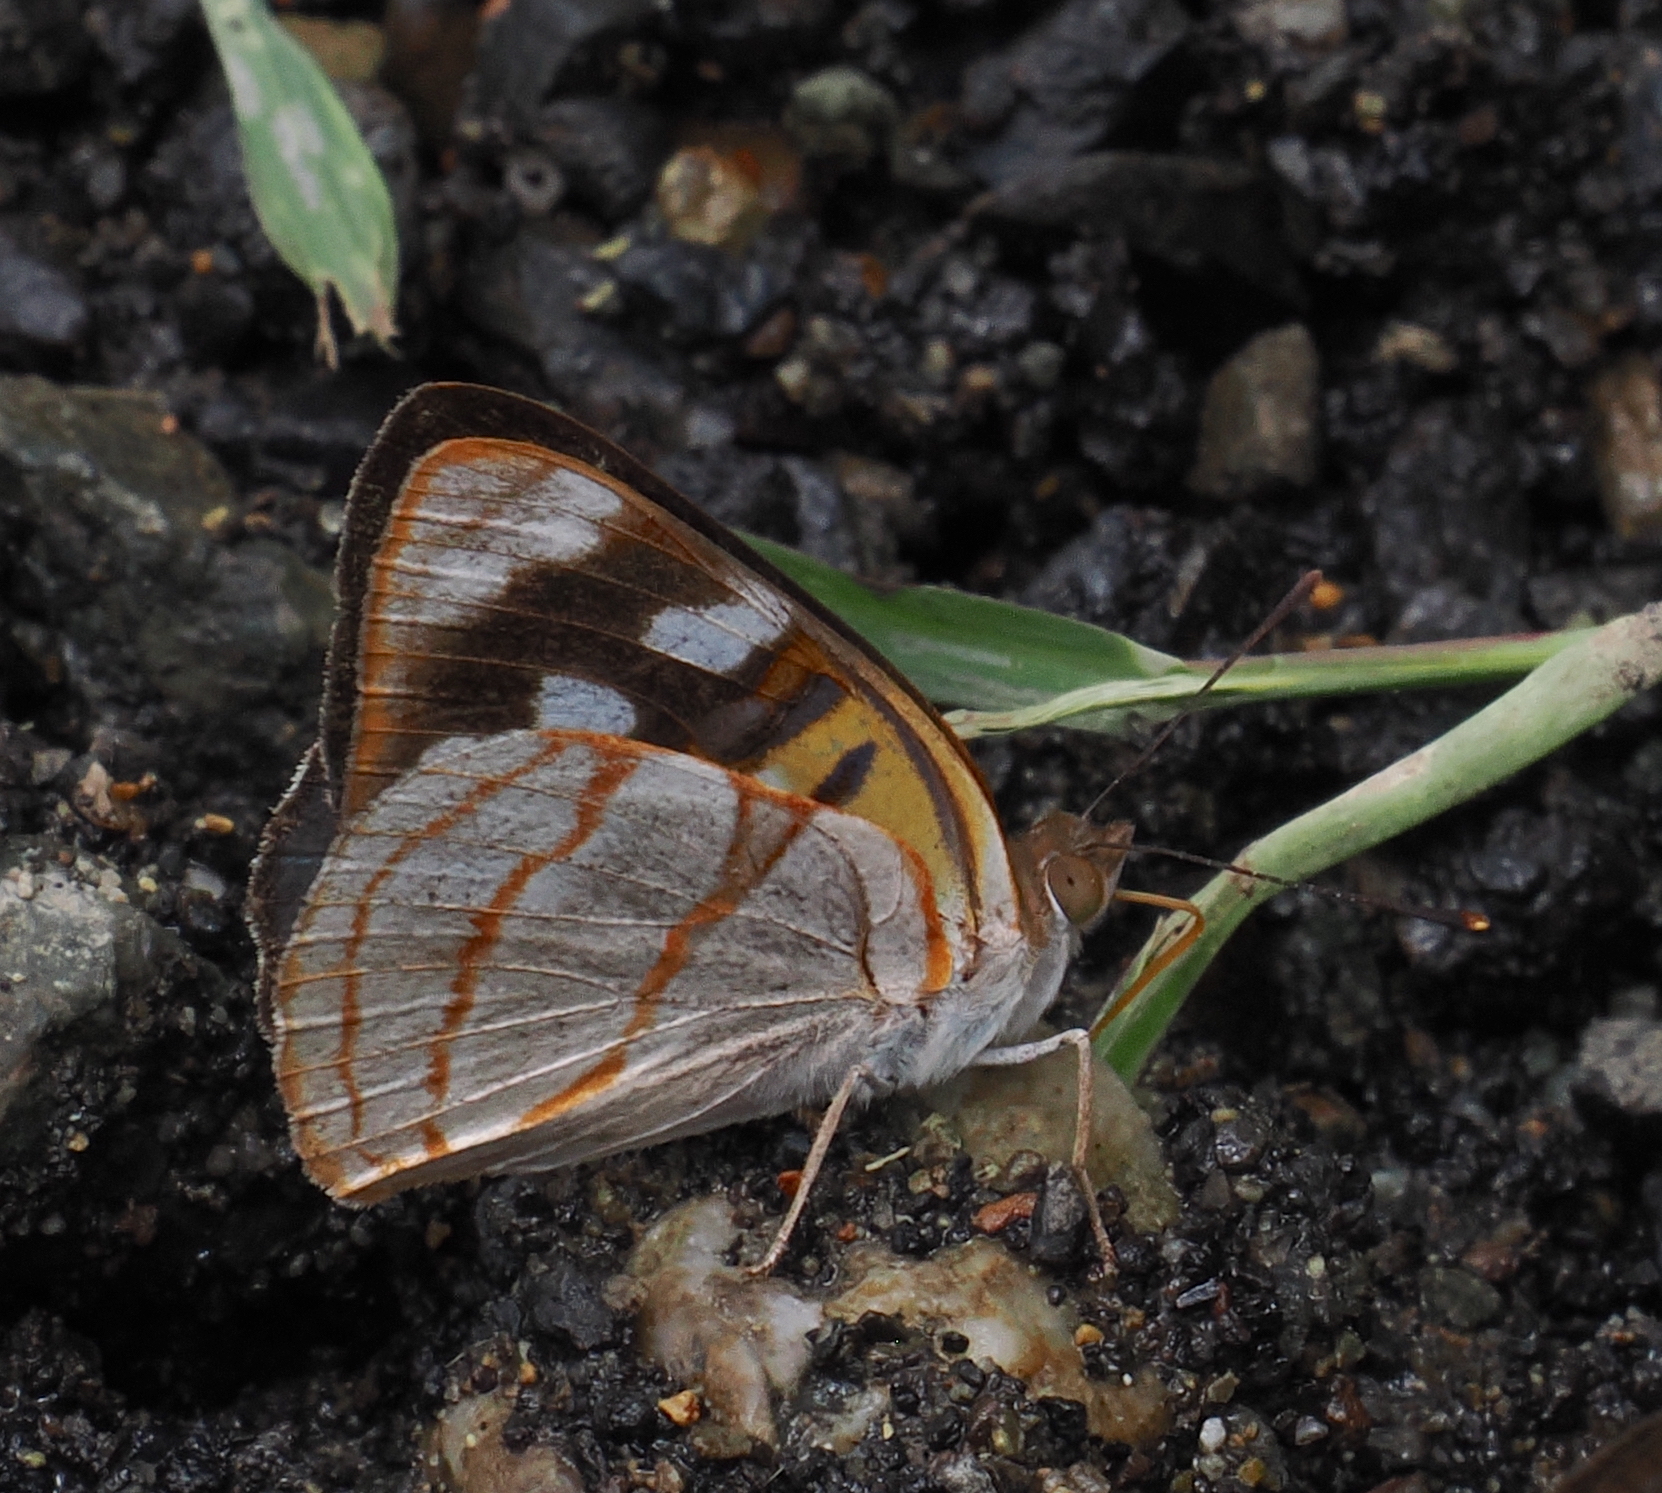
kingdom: Animalia
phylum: Arthropoda
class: Insecta
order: Lepidoptera
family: Nymphalidae
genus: Dynamine
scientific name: Dynamine sara
